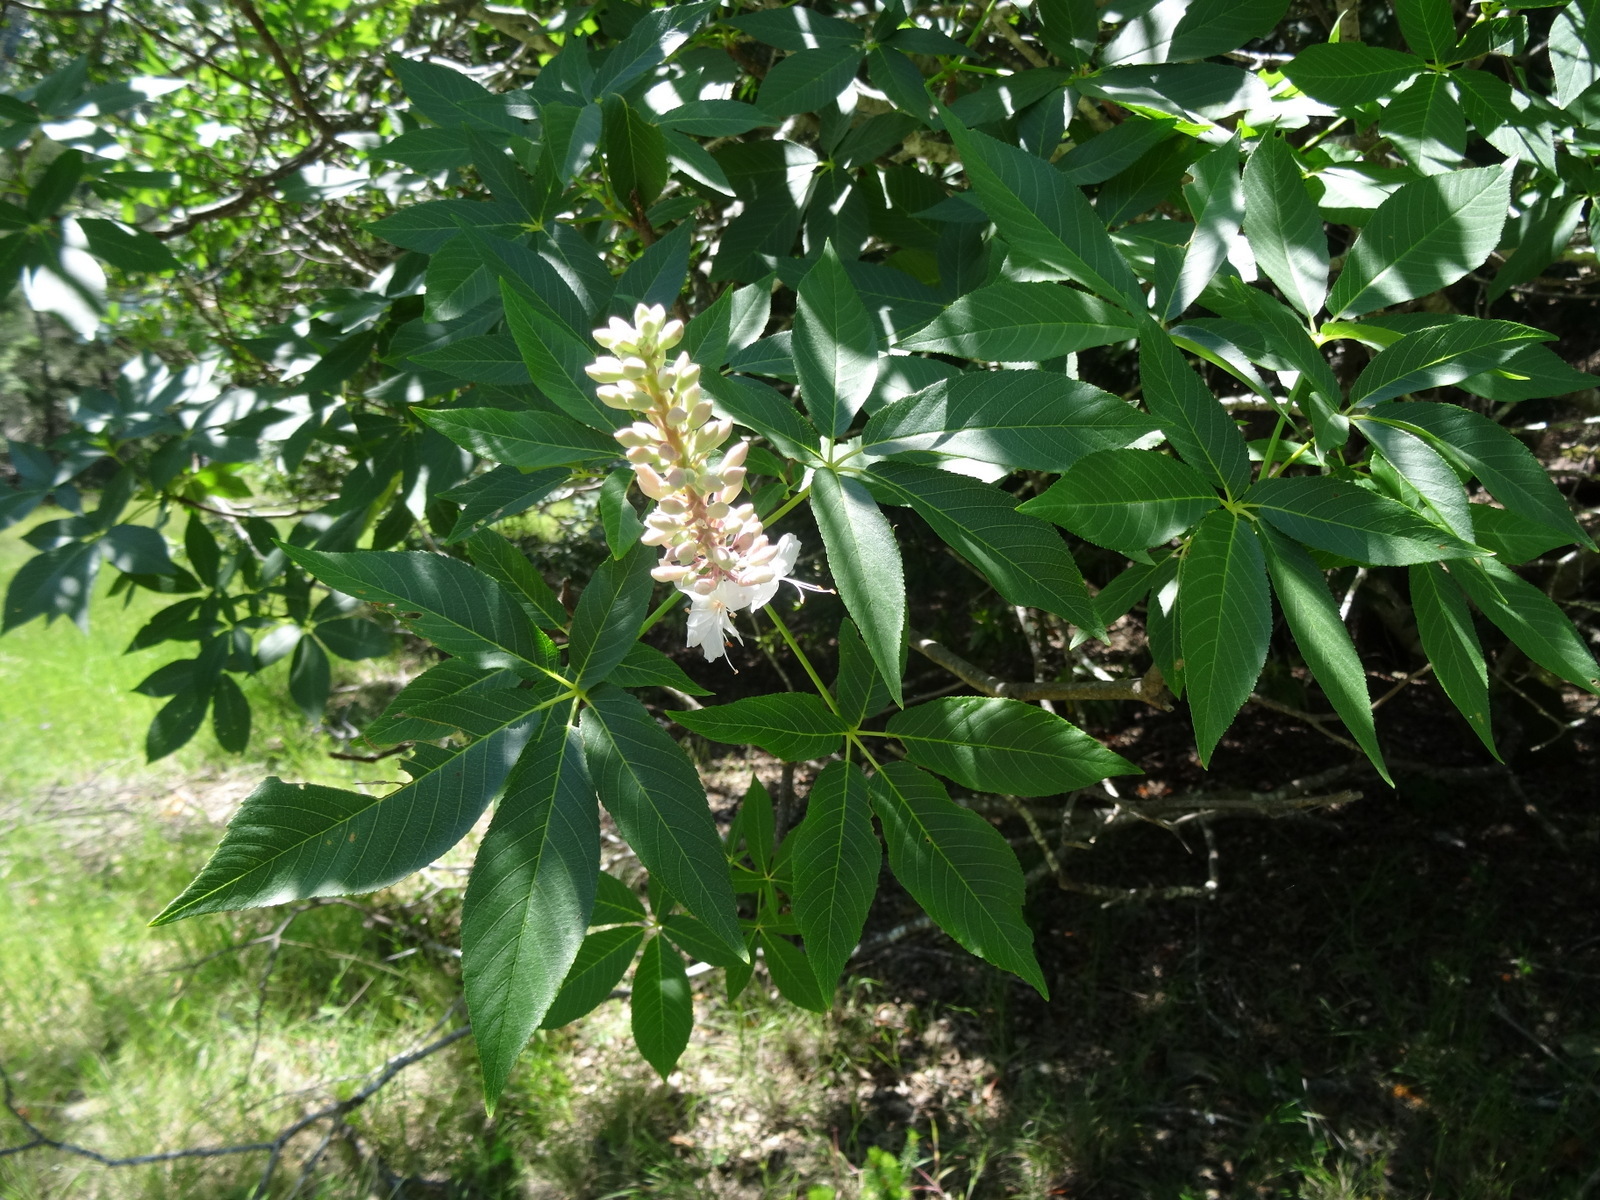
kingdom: Plantae
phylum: Tracheophyta
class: Magnoliopsida
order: Sapindales
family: Sapindaceae
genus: Aesculus
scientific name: Aesculus californica
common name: California buckeye
